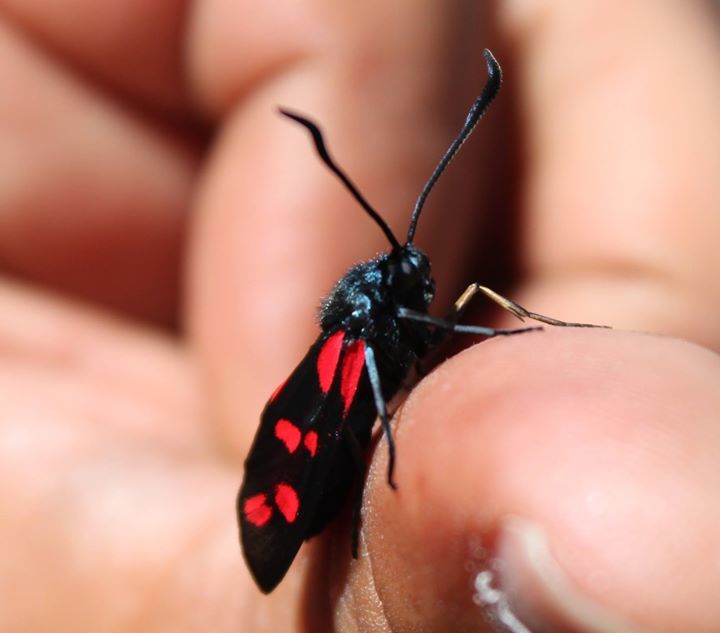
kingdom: Animalia
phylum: Arthropoda
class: Insecta
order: Lepidoptera
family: Zygaenidae
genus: Zygaena
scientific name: Zygaena filipendulae
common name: Six-spot burnet
